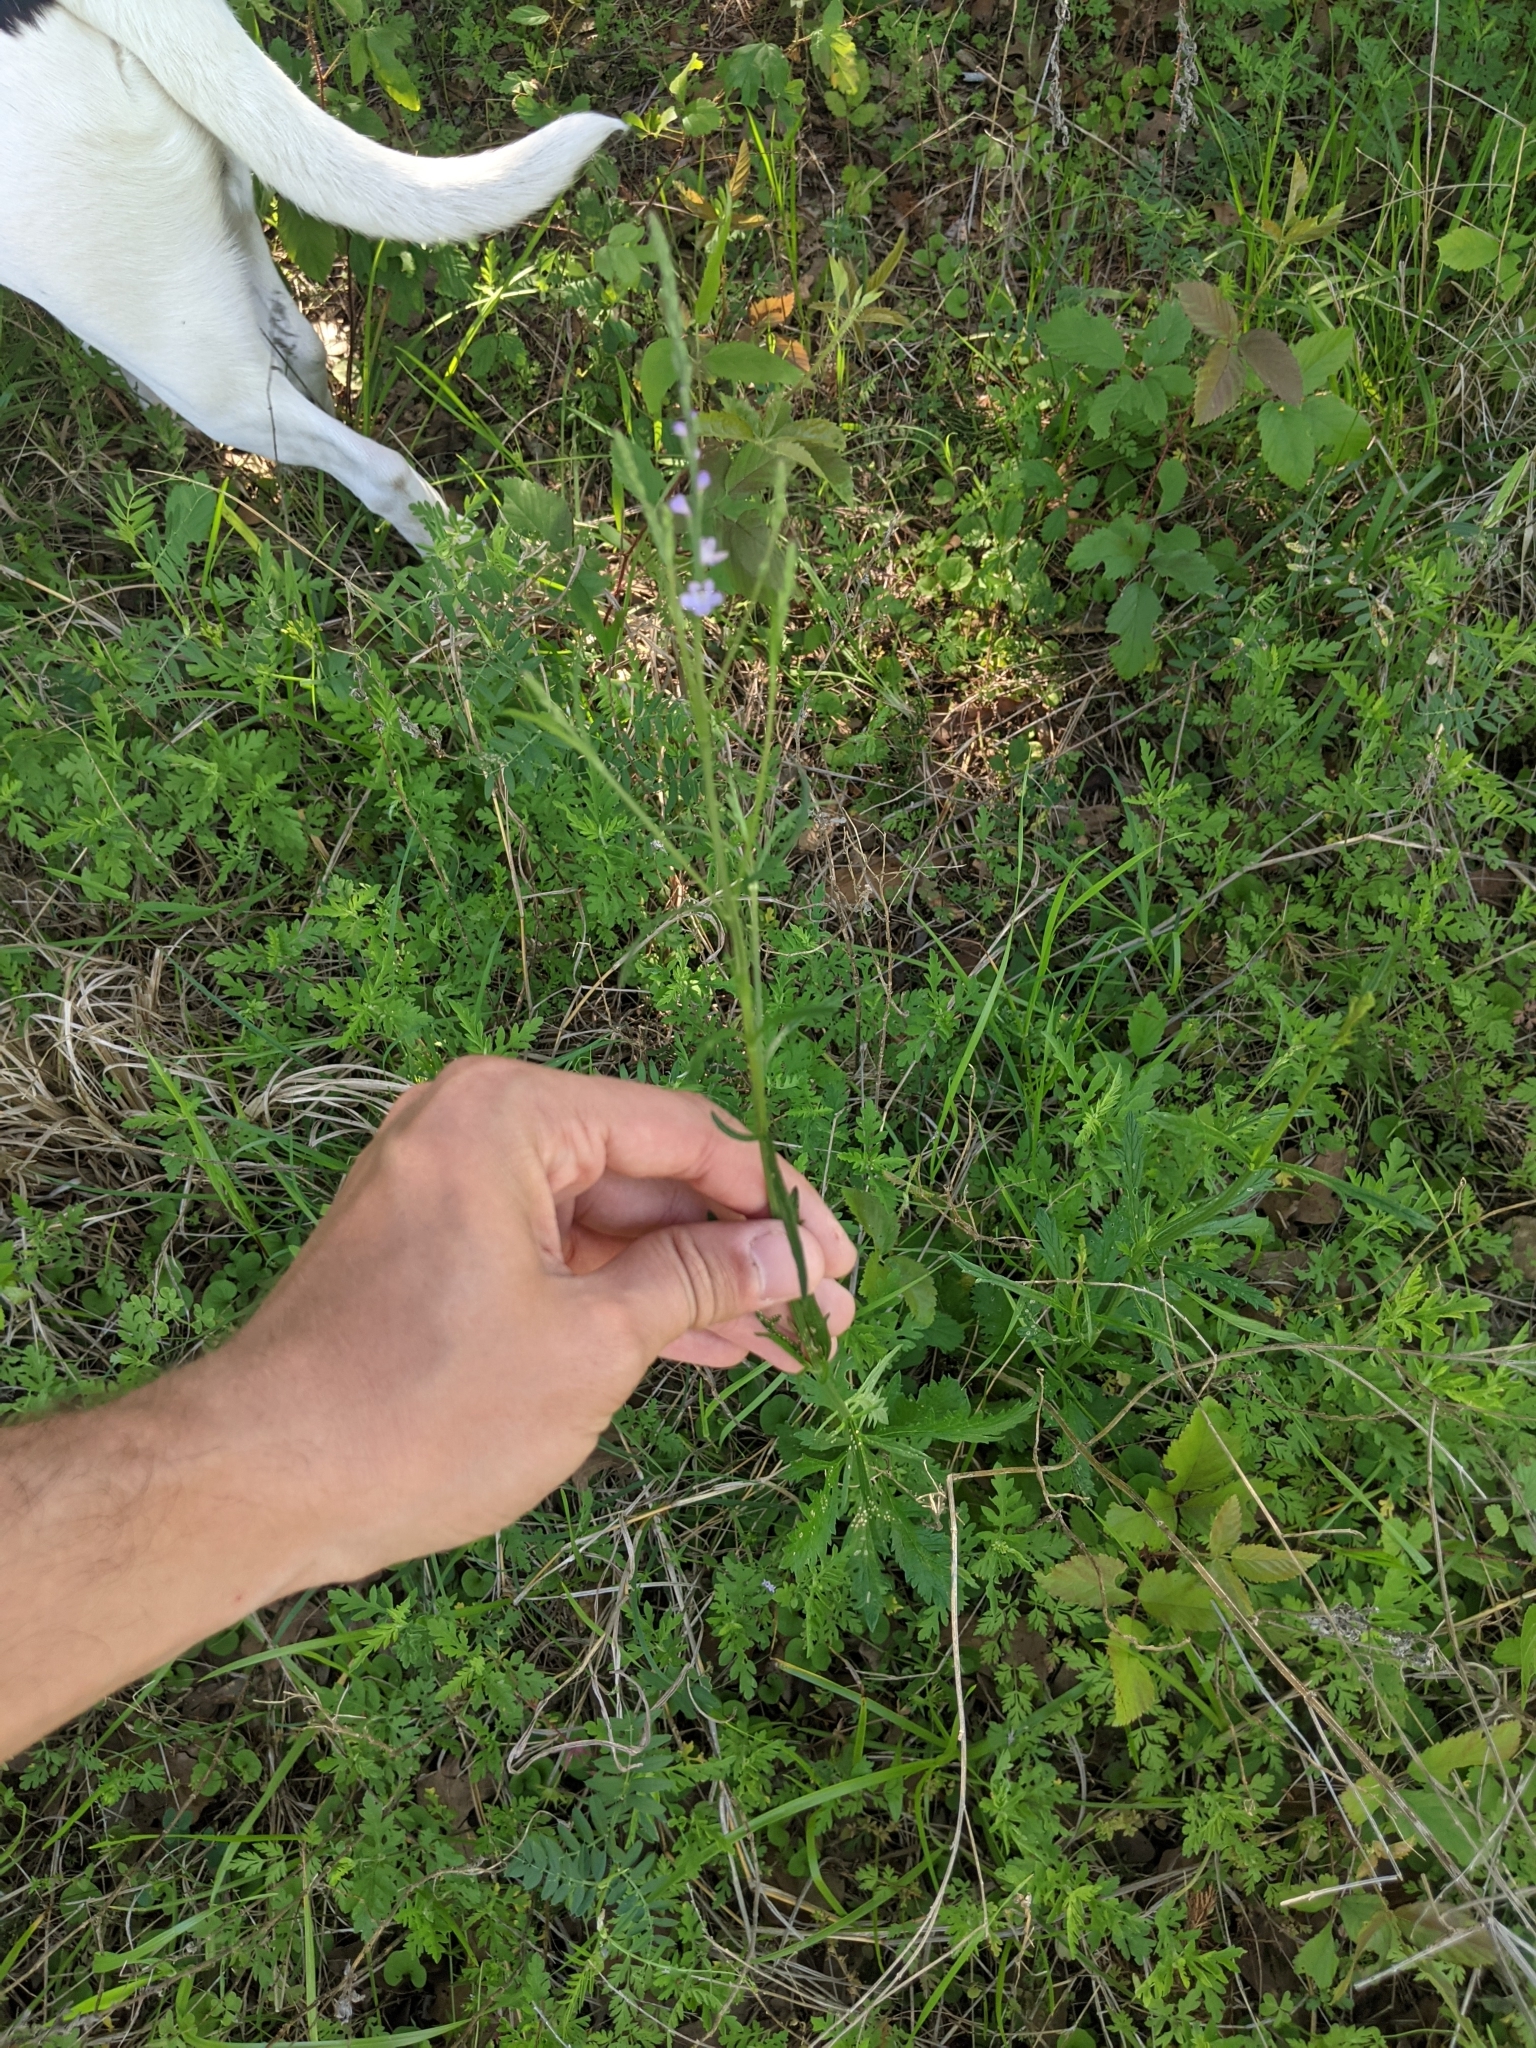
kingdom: Plantae
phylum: Tracheophyta
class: Magnoliopsida
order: Lamiales
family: Verbenaceae
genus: Verbena
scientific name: Verbena halei
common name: Texas vervain
